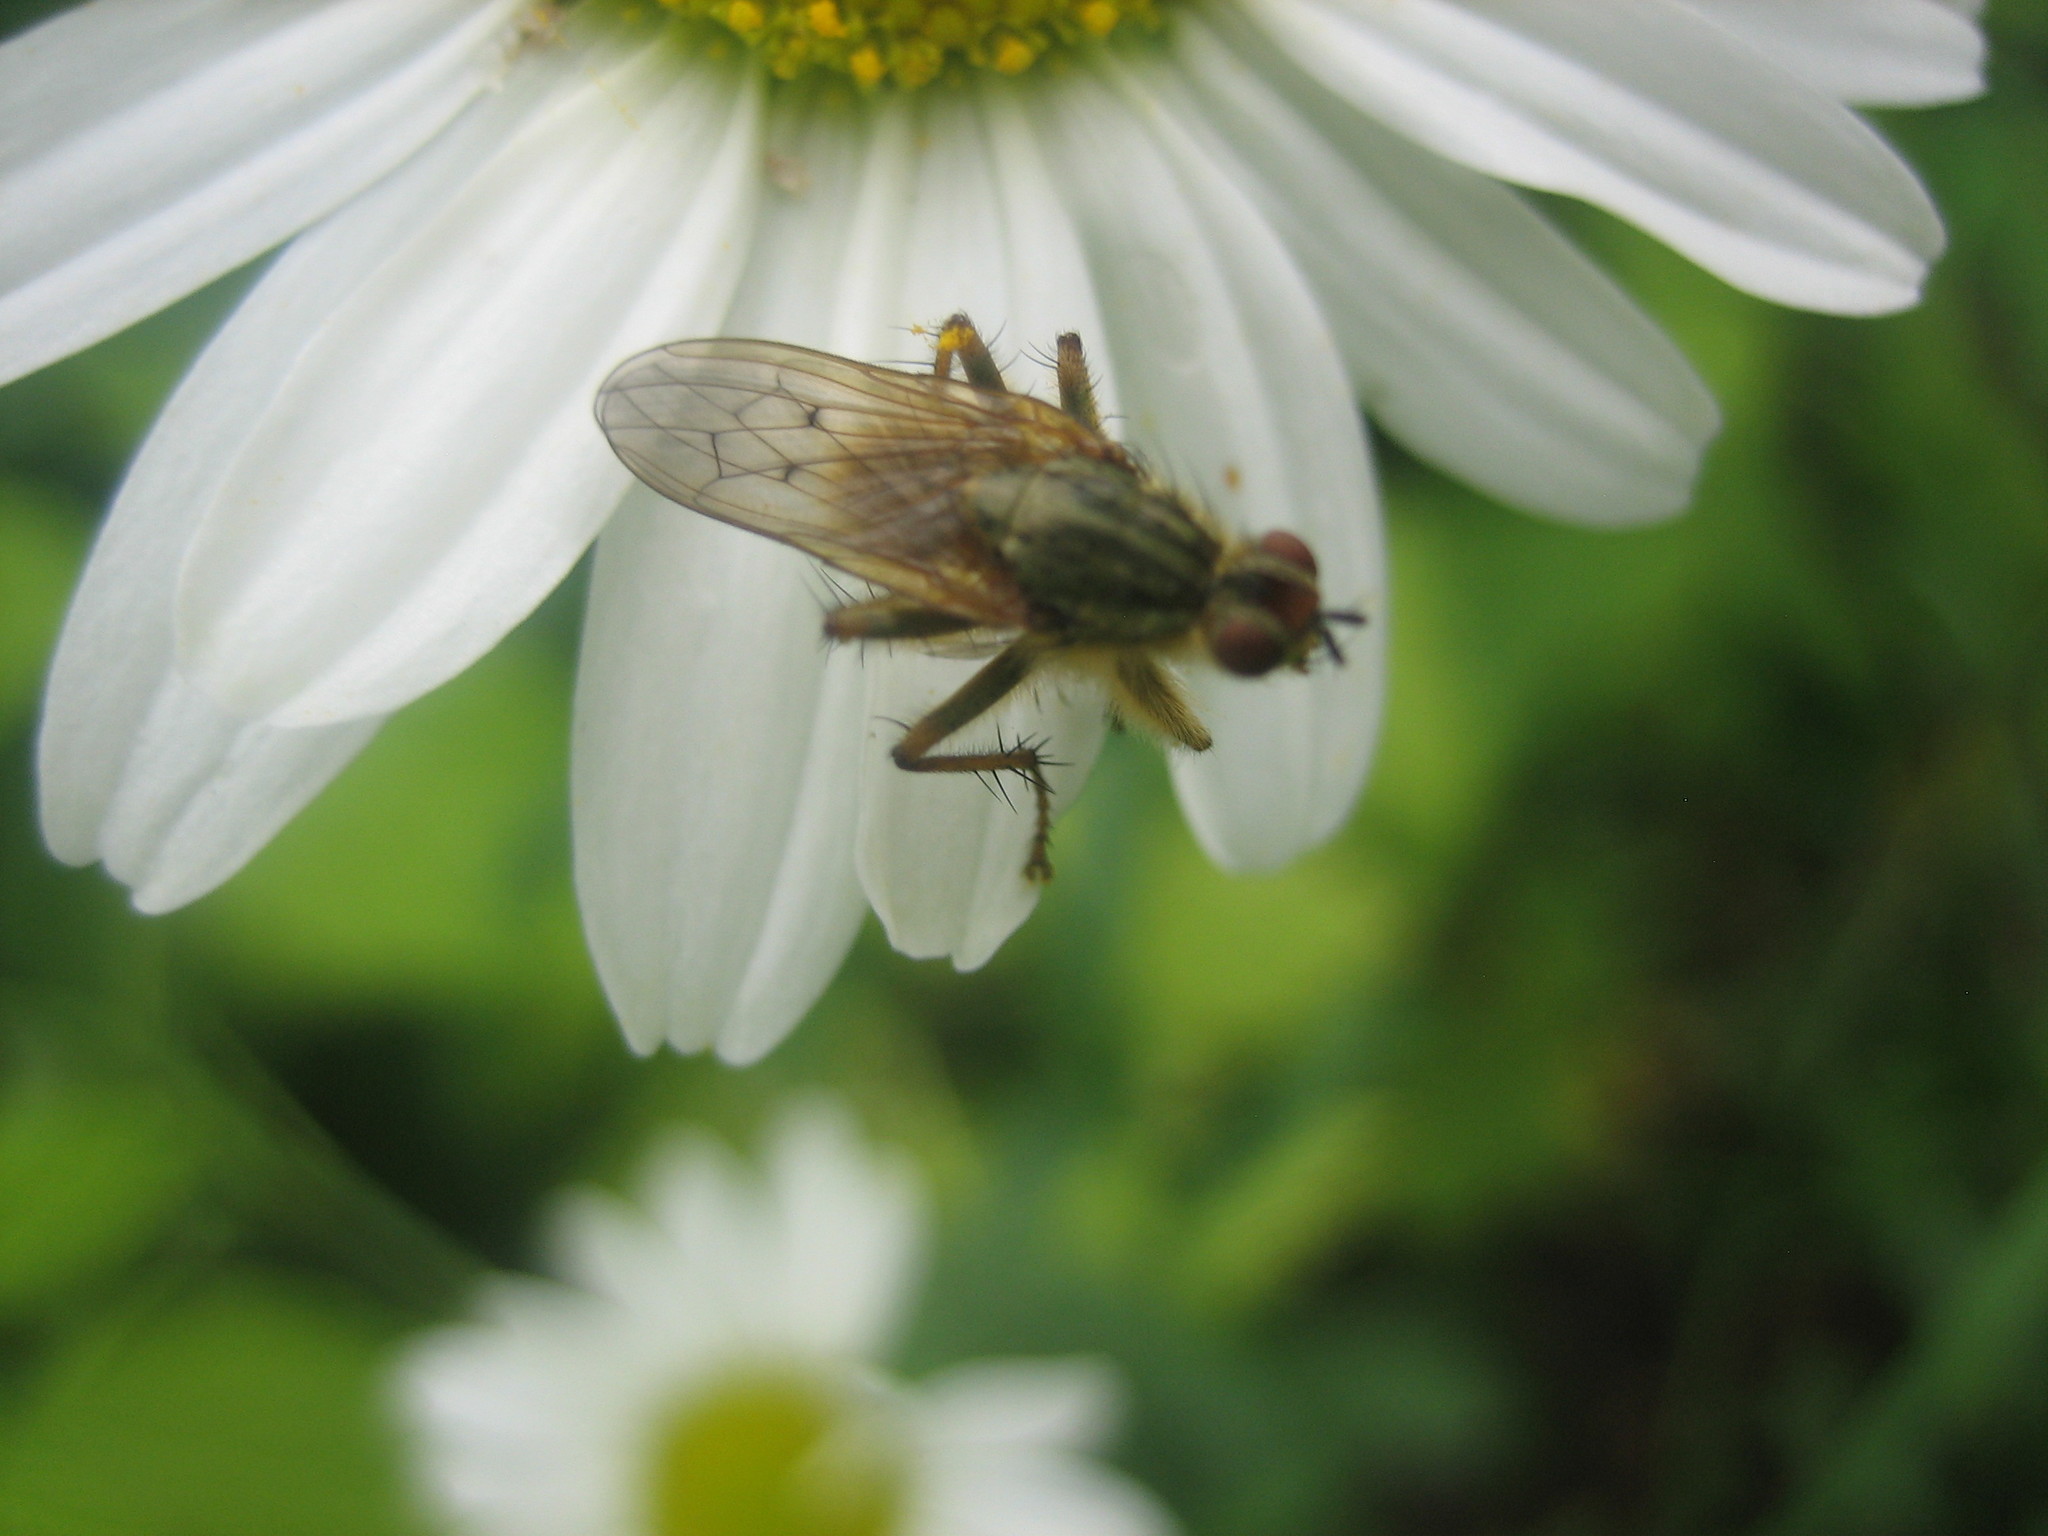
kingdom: Animalia
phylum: Arthropoda
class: Insecta
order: Diptera
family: Scathophagidae
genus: Scathophaga
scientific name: Scathophaga stercoraria
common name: Yellow dung fly
